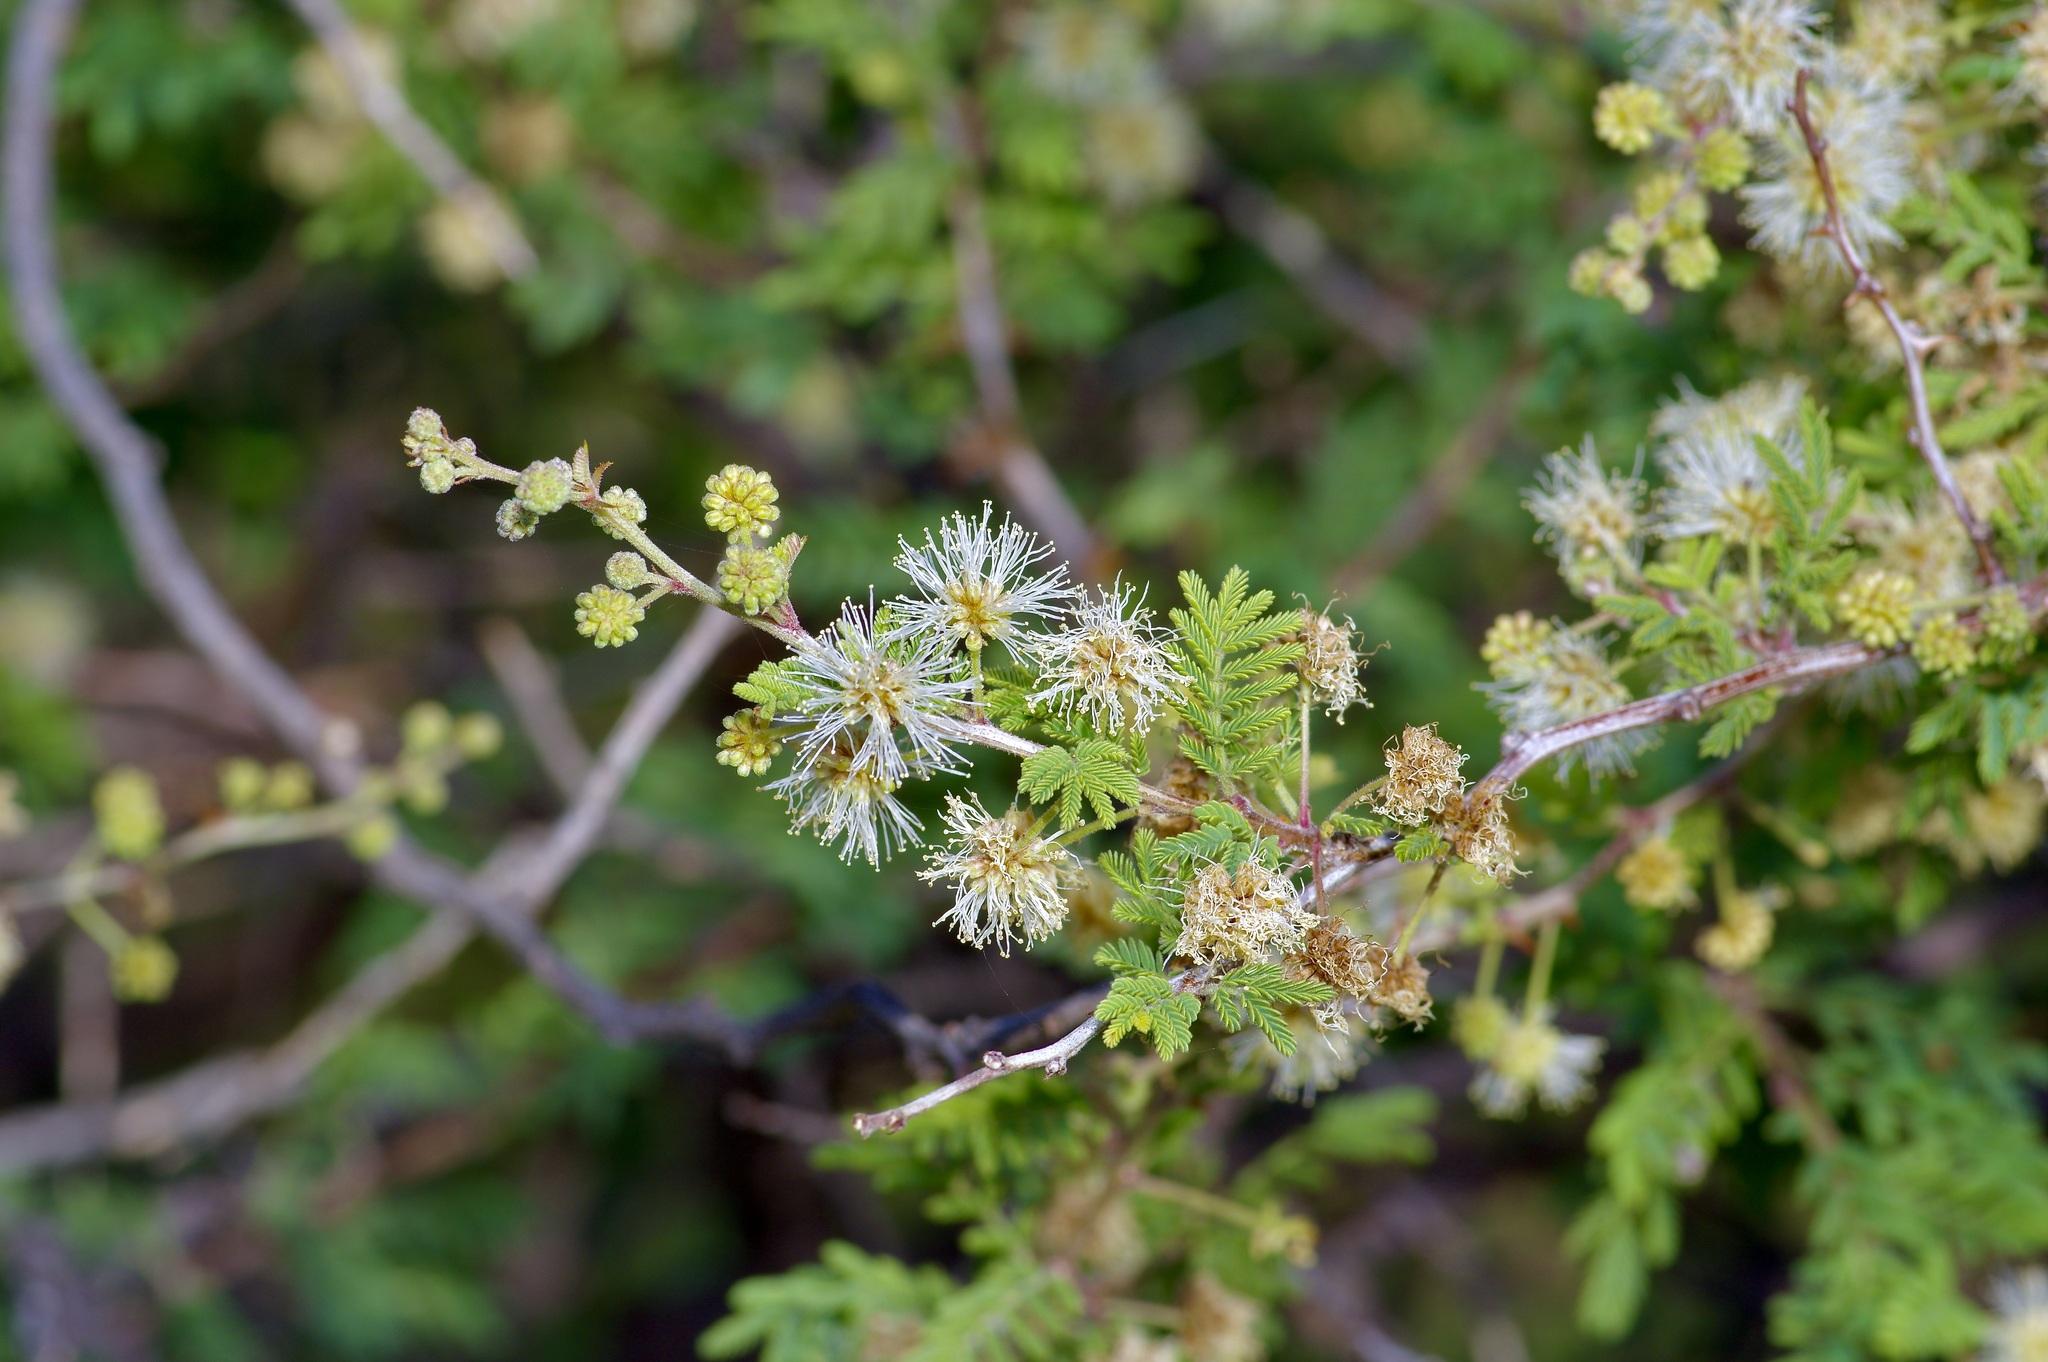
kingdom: Plantae
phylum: Tracheophyta
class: Magnoliopsida
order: Fabales
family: Fabaceae
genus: Mimosa
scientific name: Mimosa aculeaticarpa
